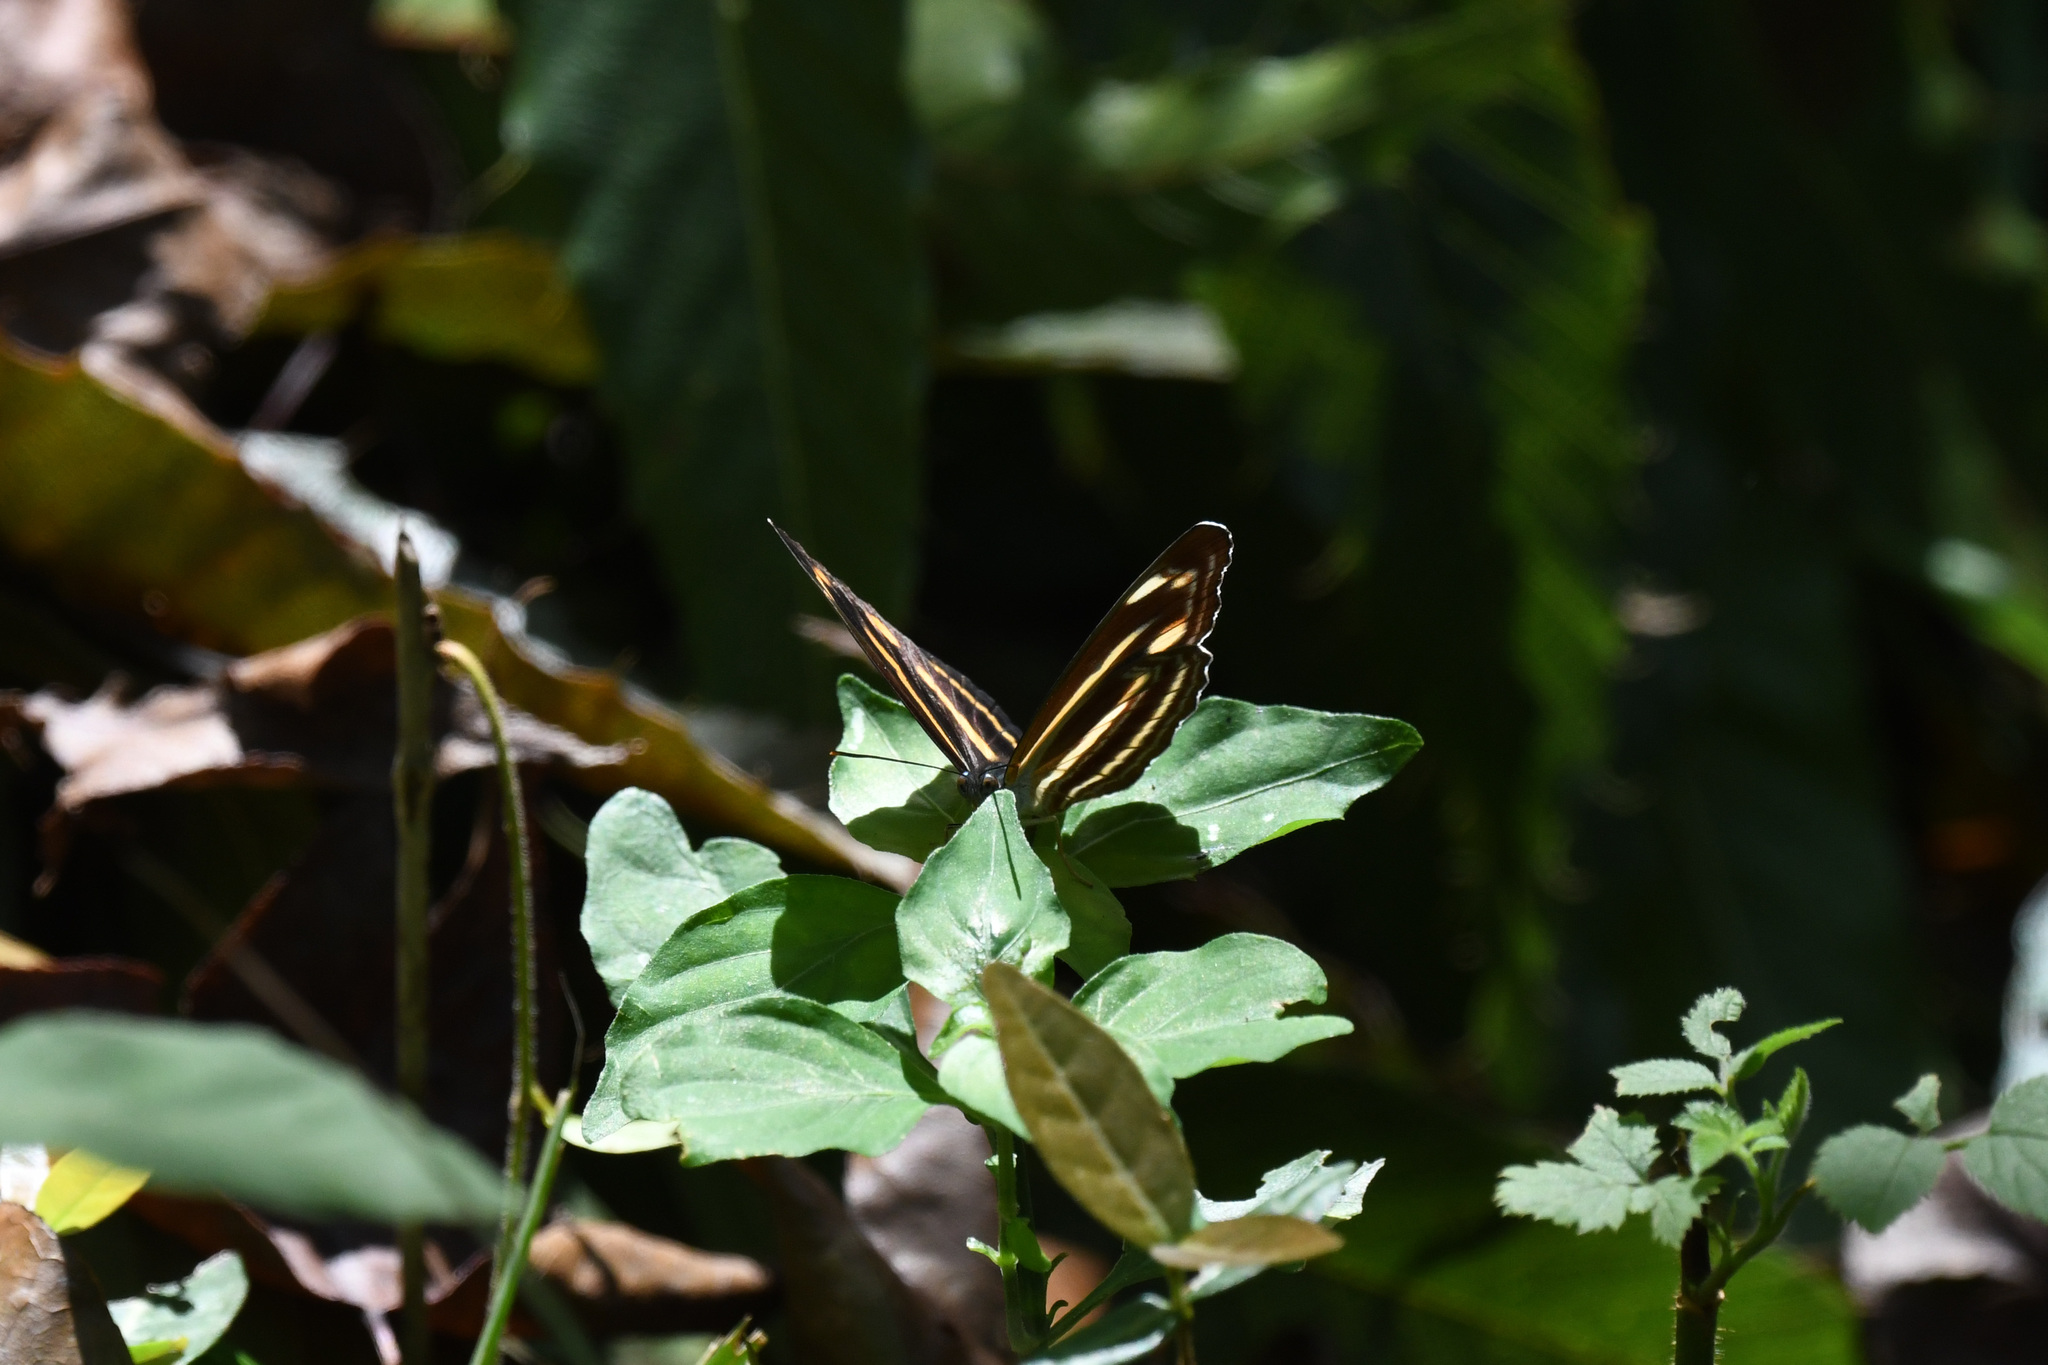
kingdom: Animalia
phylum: Arthropoda
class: Insecta
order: Lepidoptera
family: Nymphalidae
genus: Neptis
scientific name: Neptis ananta
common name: Yellow sailer
